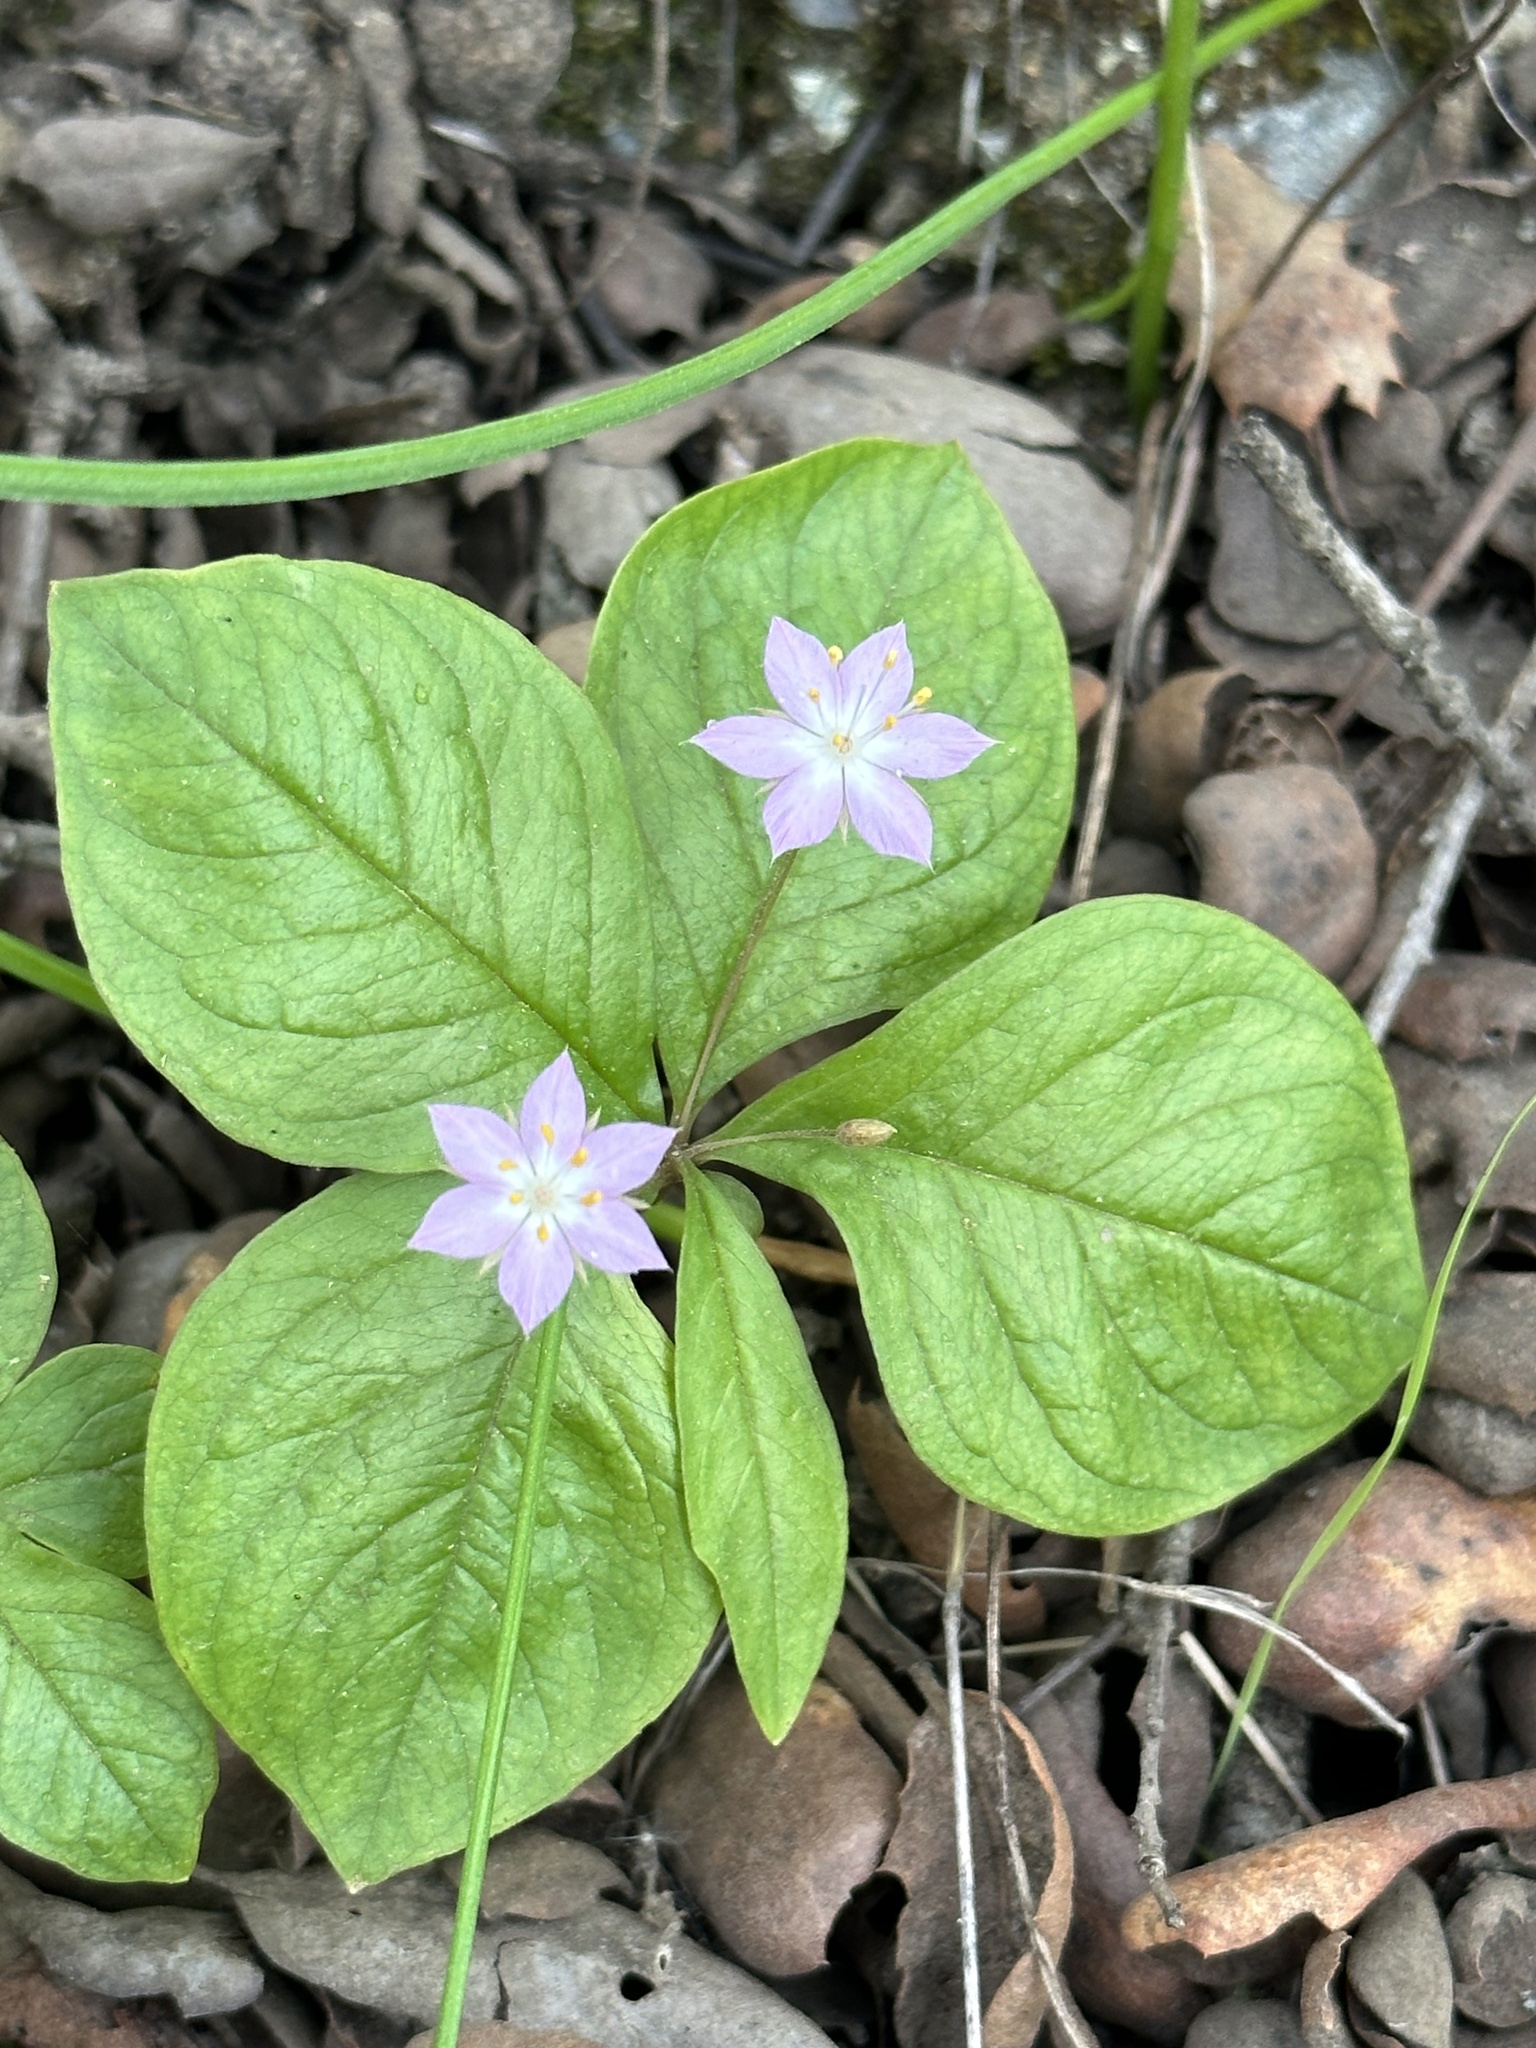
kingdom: Plantae
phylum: Tracheophyta
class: Magnoliopsida
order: Ericales
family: Primulaceae
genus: Lysimachia
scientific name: Lysimachia latifolia
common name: Pacific starflower
